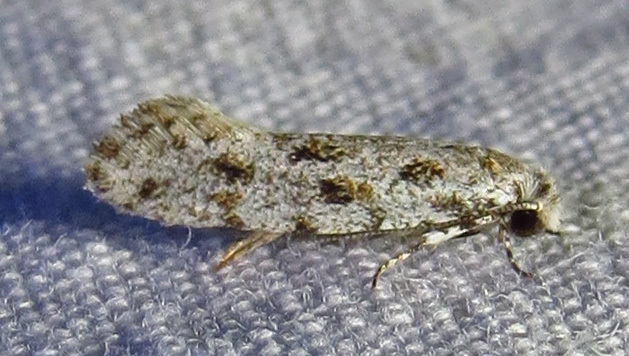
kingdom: Animalia
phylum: Arthropoda
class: Insecta
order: Lepidoptera
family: Meessiidae
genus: Diachorisia
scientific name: Diachorisia velatella
